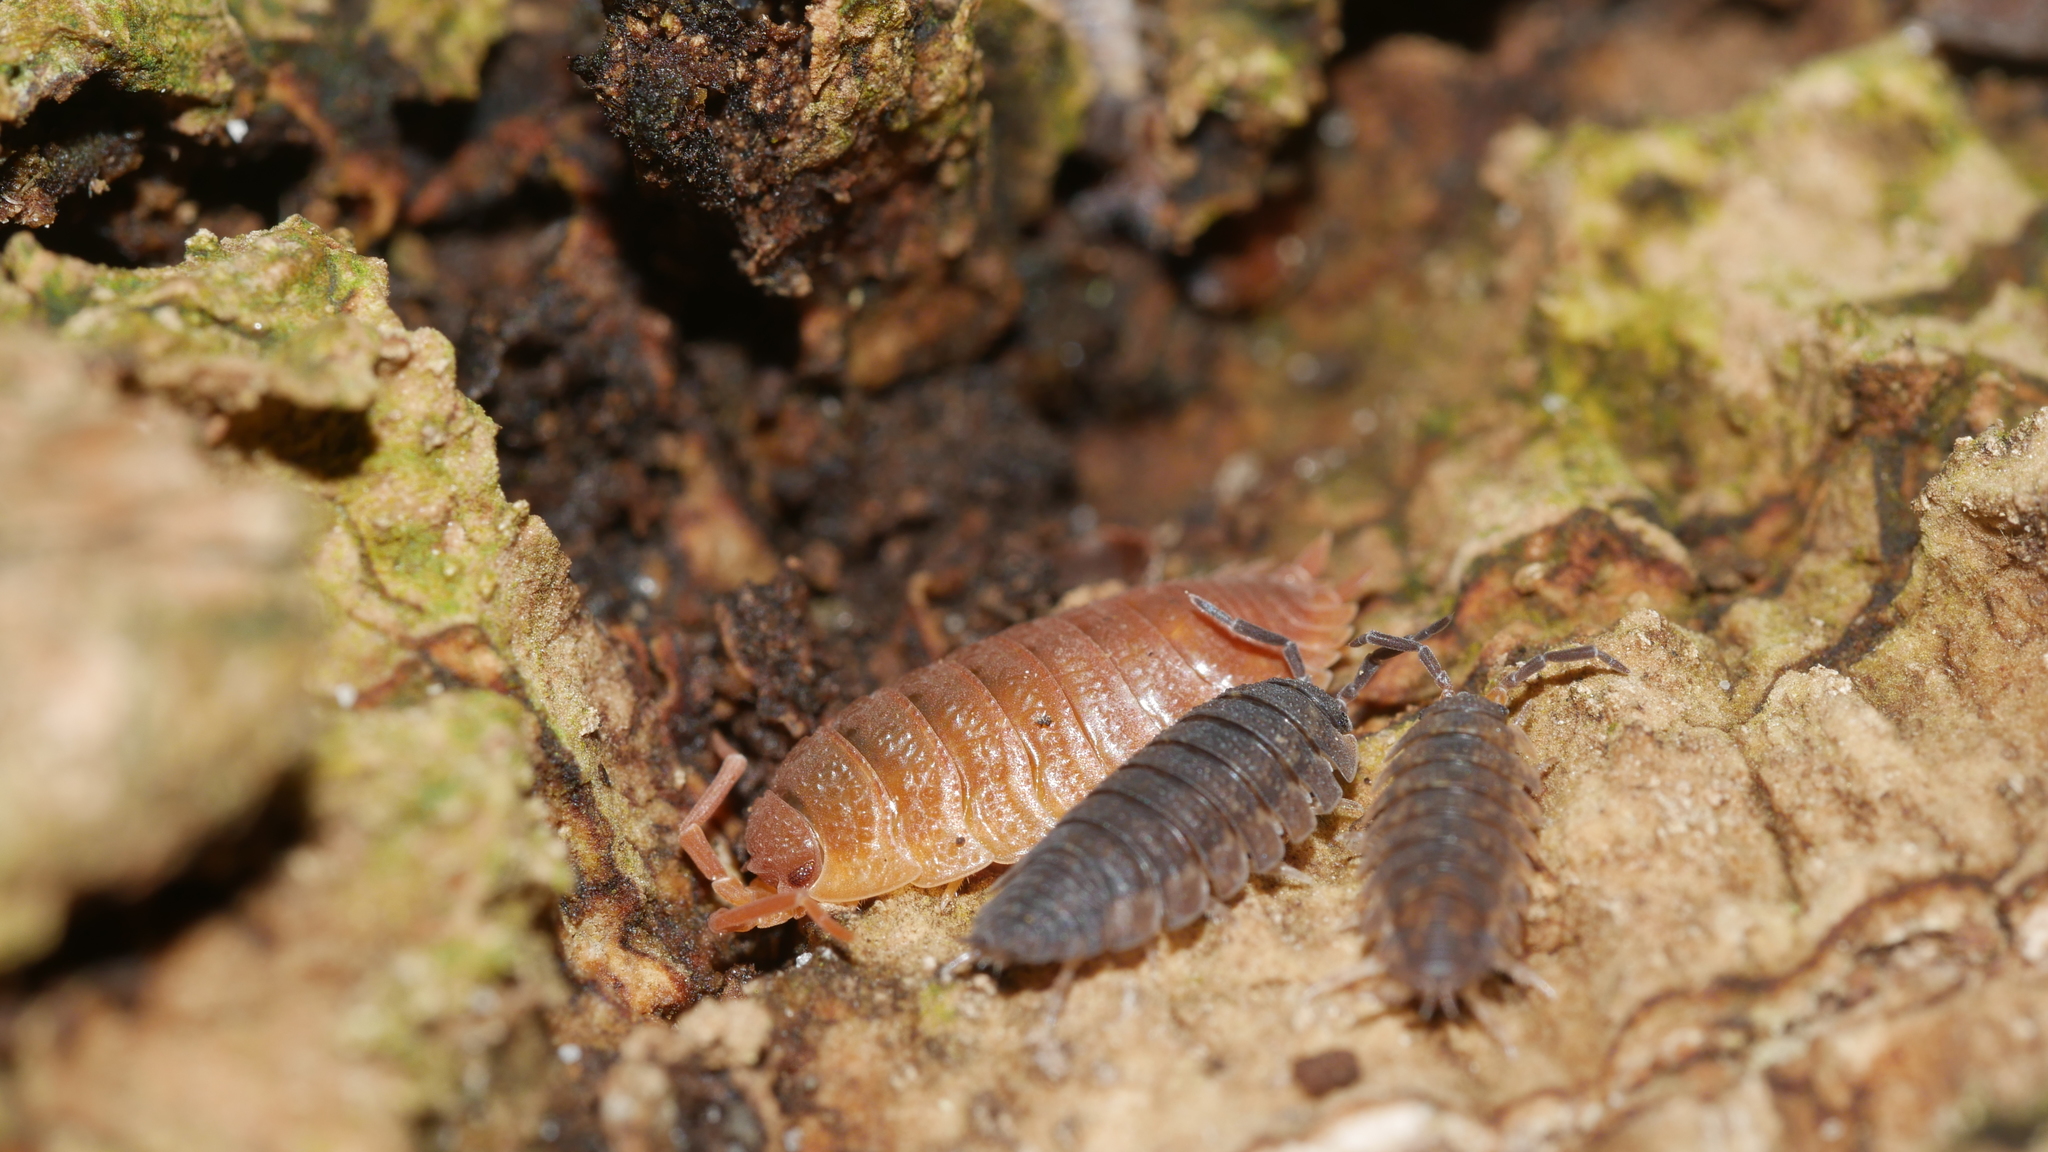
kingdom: Animalia
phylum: Arthropoda
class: Malacostraca
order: Isopoda
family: Porcellionidae
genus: Porcellio
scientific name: Porcellio scaber
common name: Common rough woodlouse
